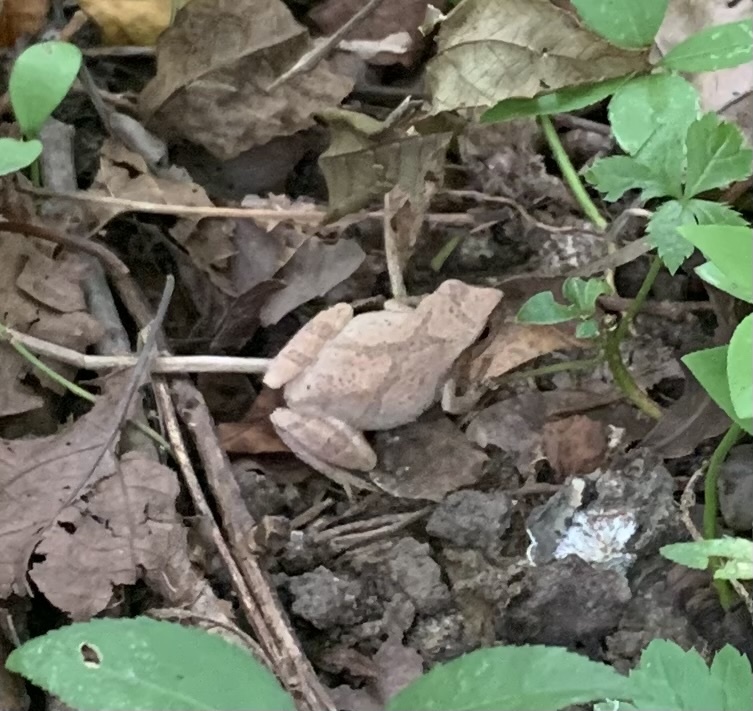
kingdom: Animalia
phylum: Chordata
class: Amphibia
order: Anura
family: Hylidae
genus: Pseudacris
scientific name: Pseudacris crucifer
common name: Spring peeper
